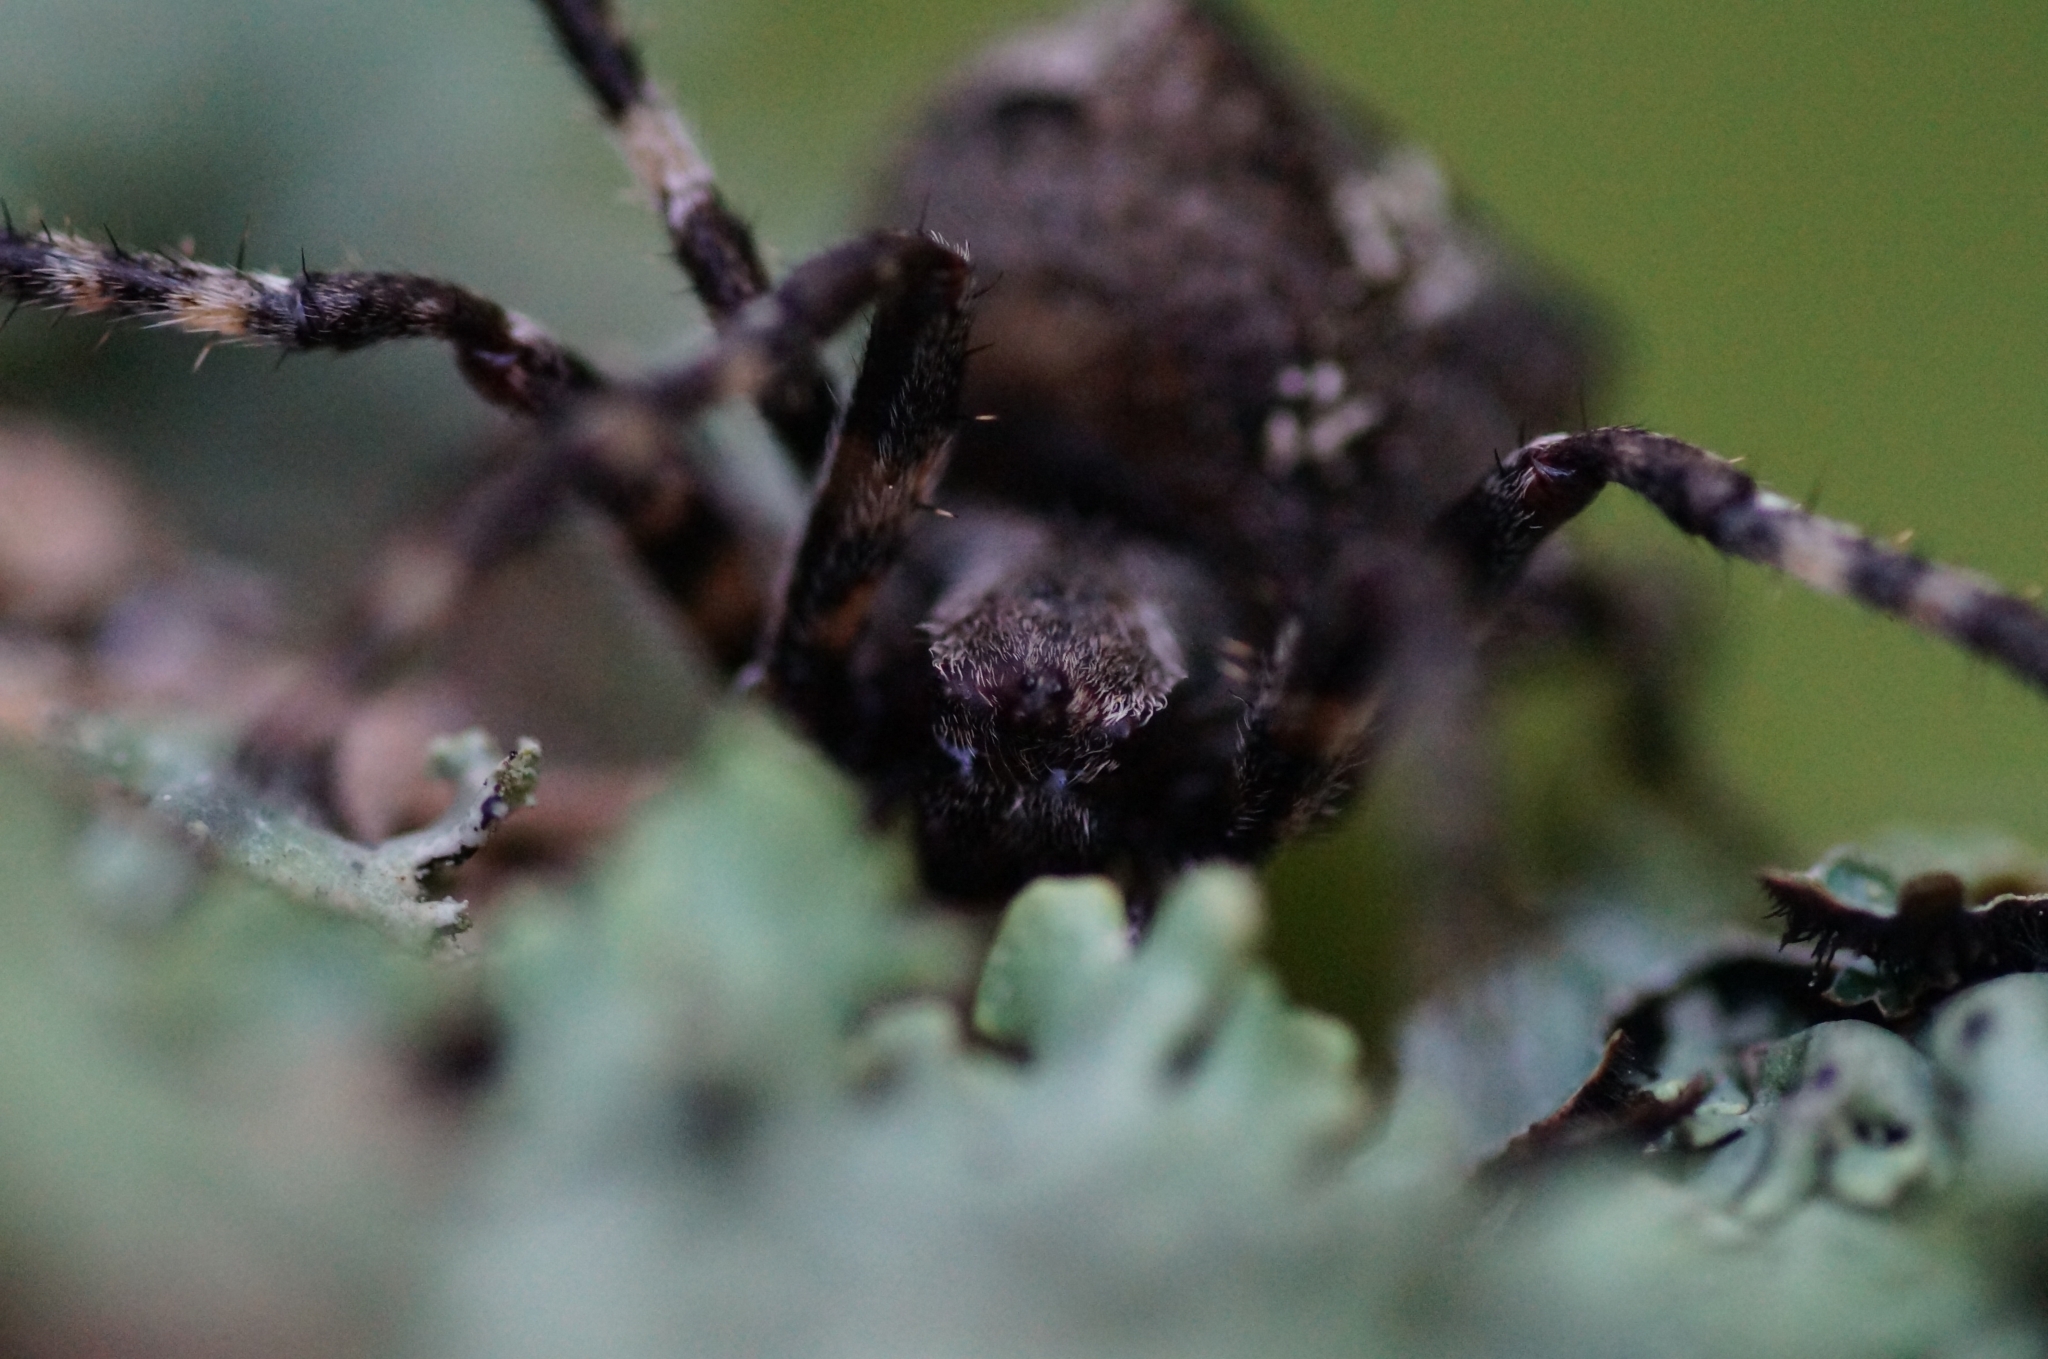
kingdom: Animalia
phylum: Arthropoda
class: Arachnida
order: Araneae
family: Araneidae
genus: Araneus
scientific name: Araneus angulatus
